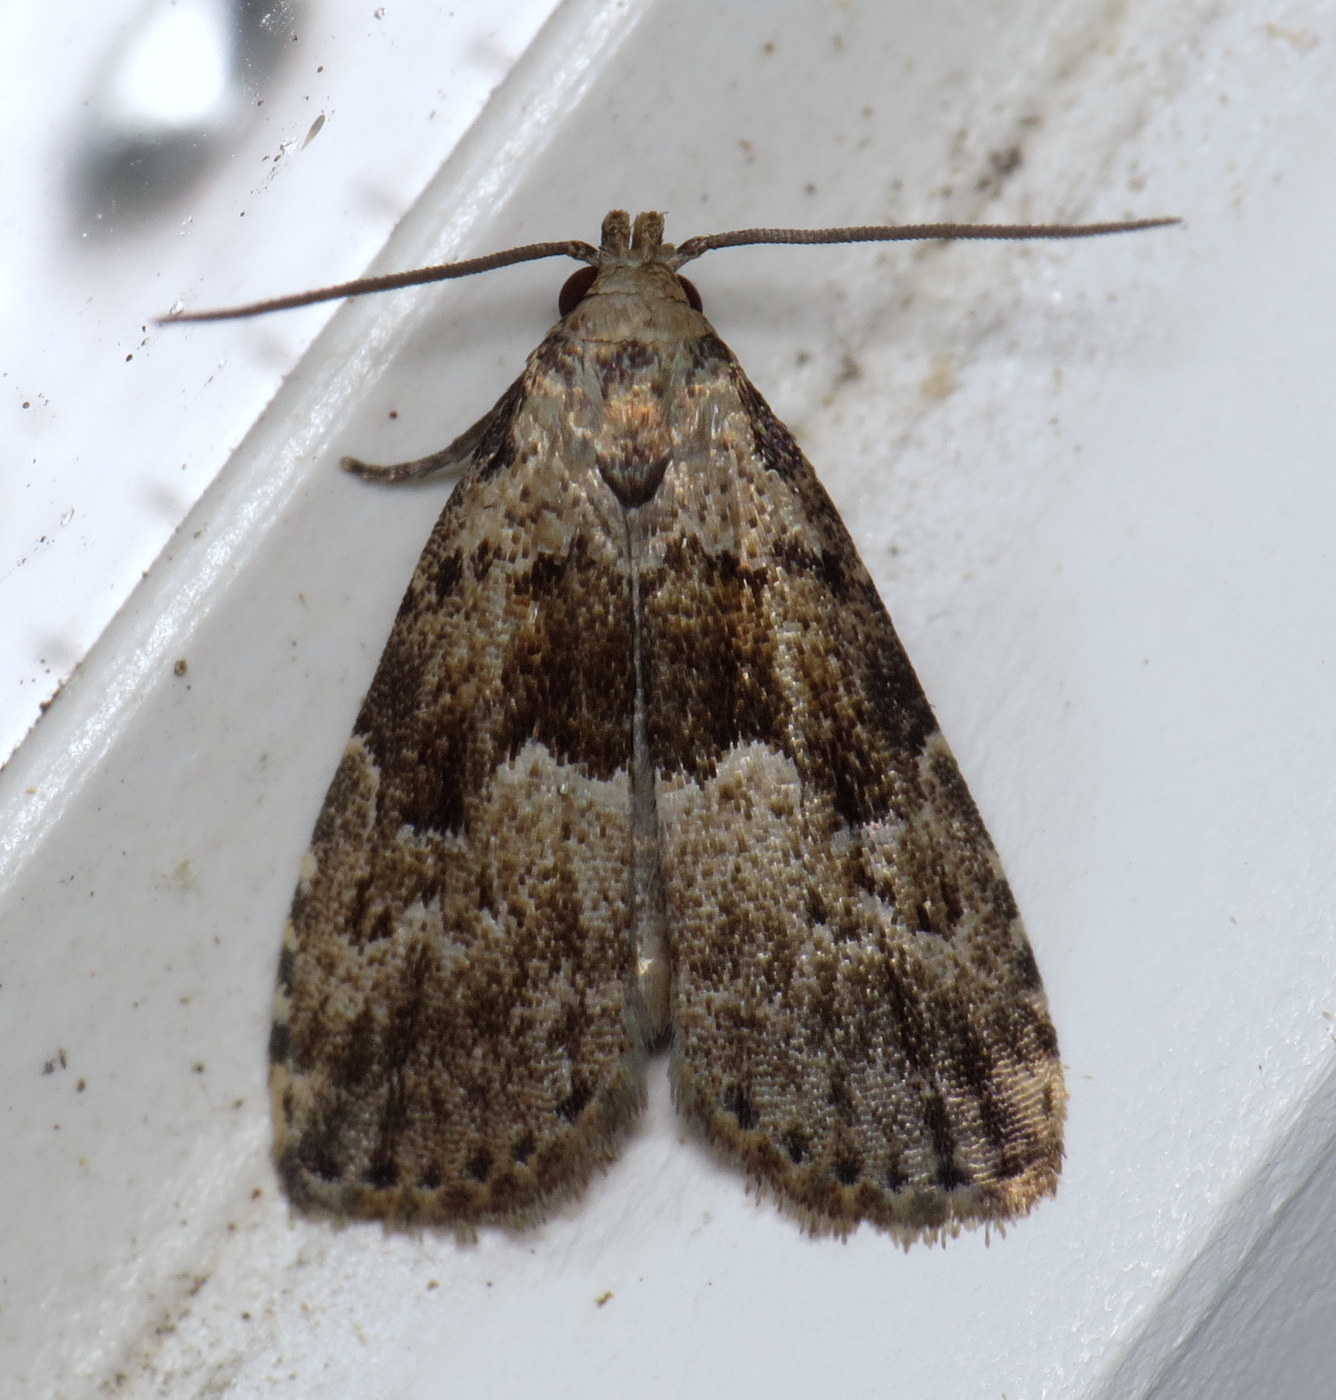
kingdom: Animalia
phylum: Arthropoda
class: Insecta
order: Lepidoptera
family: Erebidae
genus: Hypenodes
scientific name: Hypenodes franclemonti
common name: Franclemont's hypenodes moth
